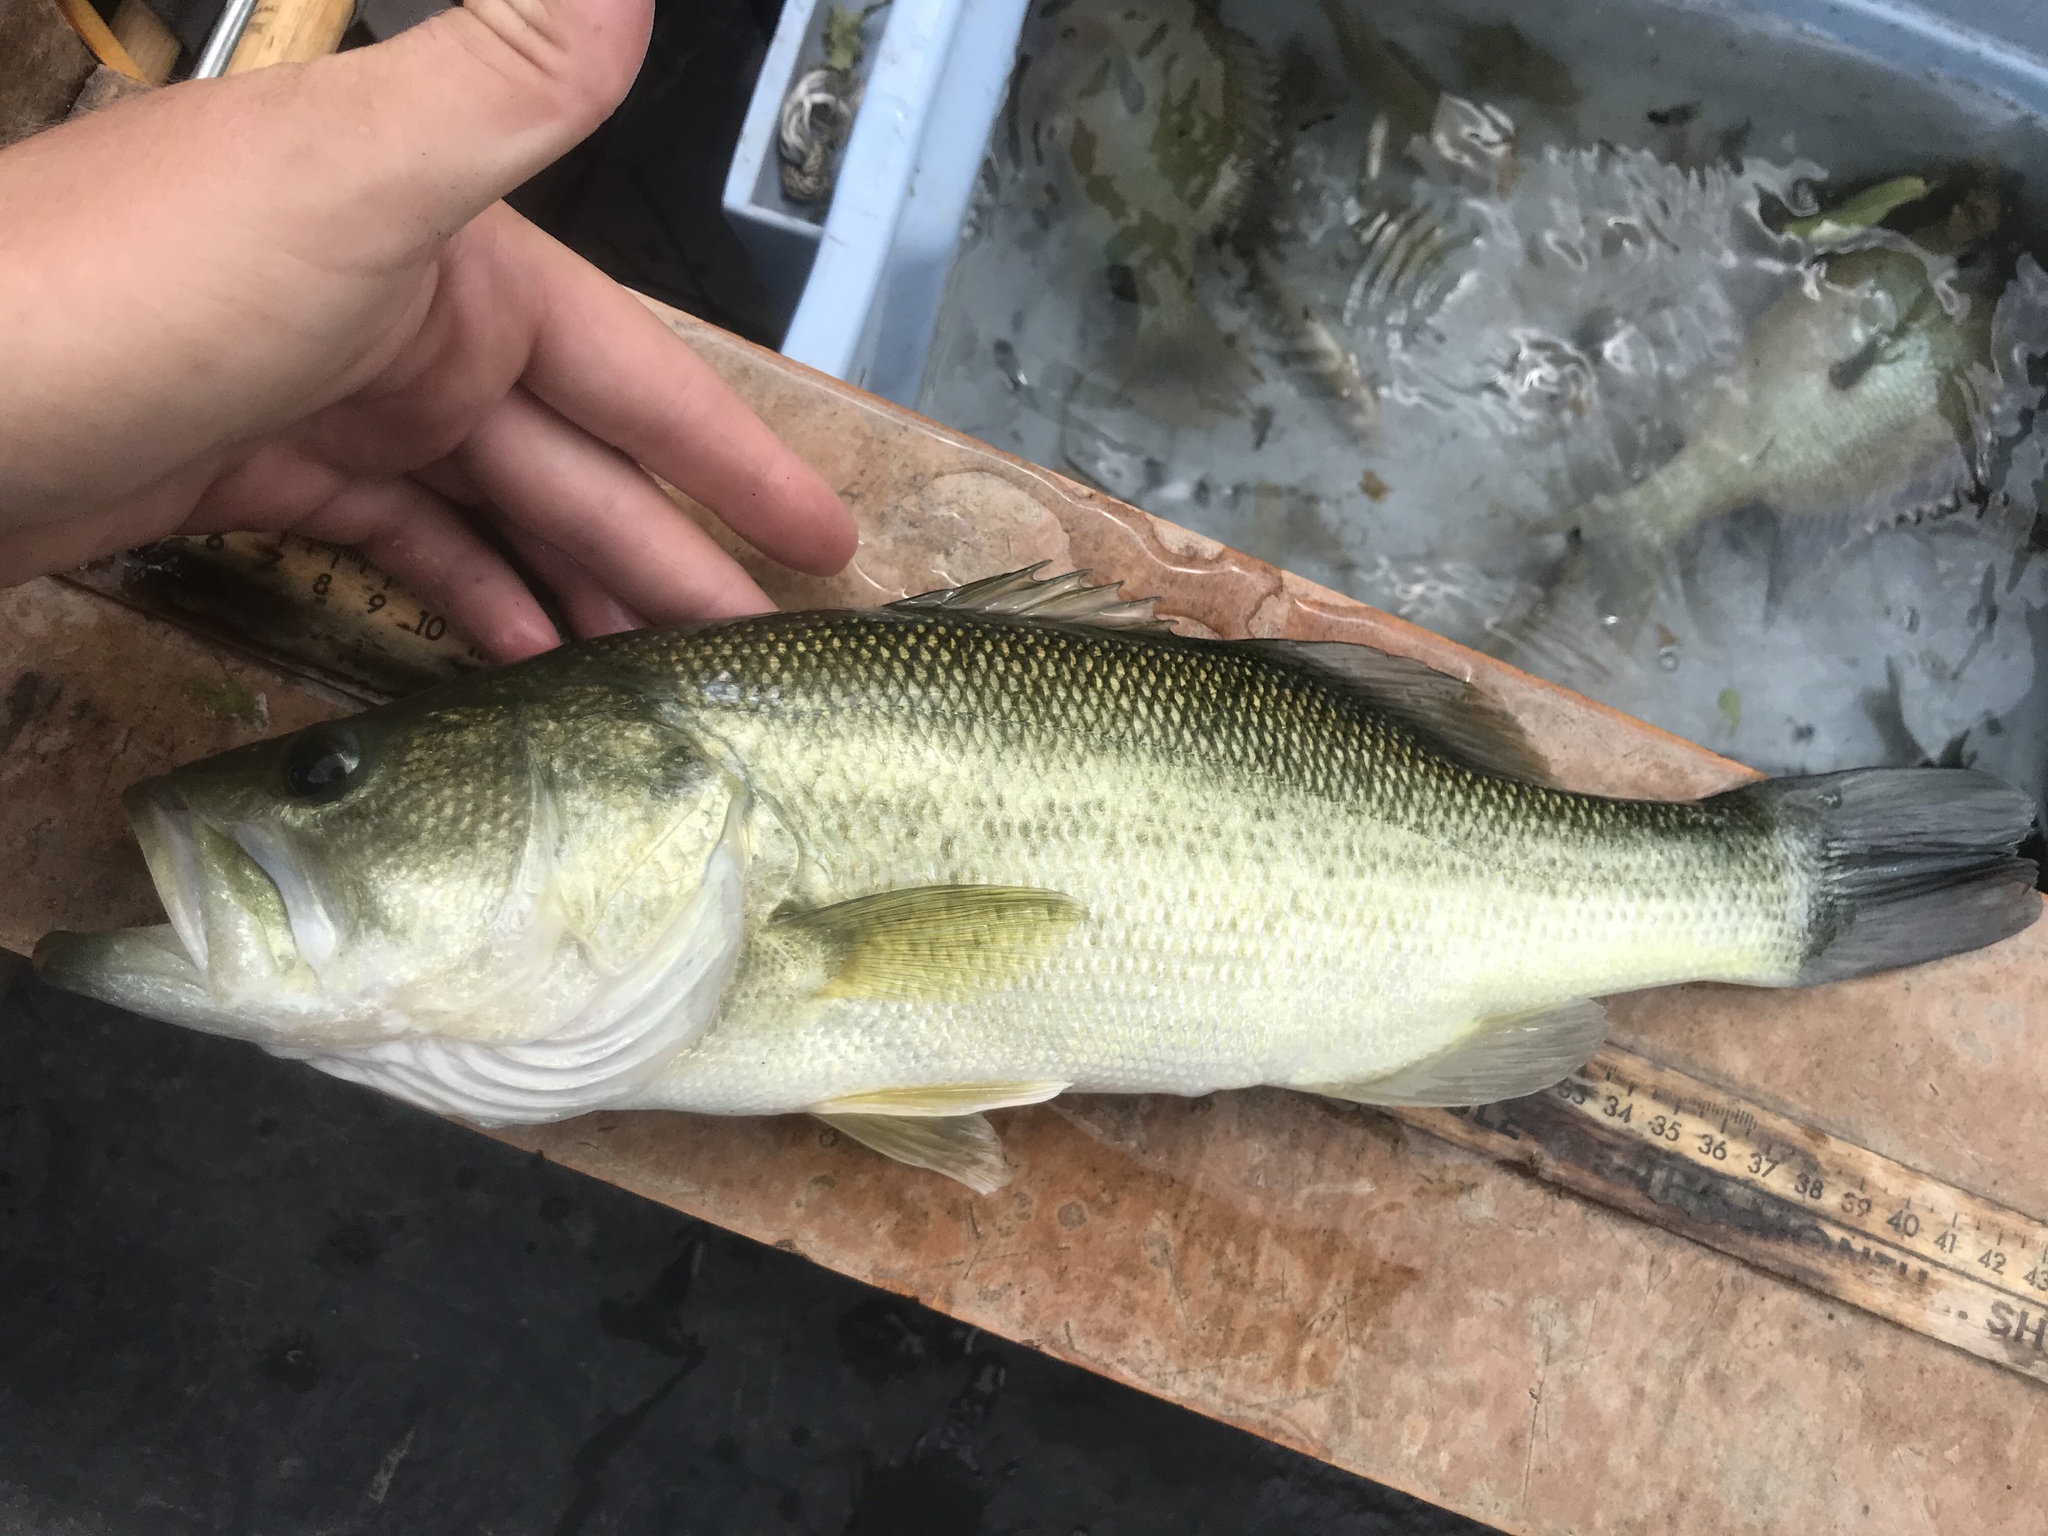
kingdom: Animalia
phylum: Chordata
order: Perciformes
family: Centrarchidae
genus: Micropterus
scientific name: Micropterus
